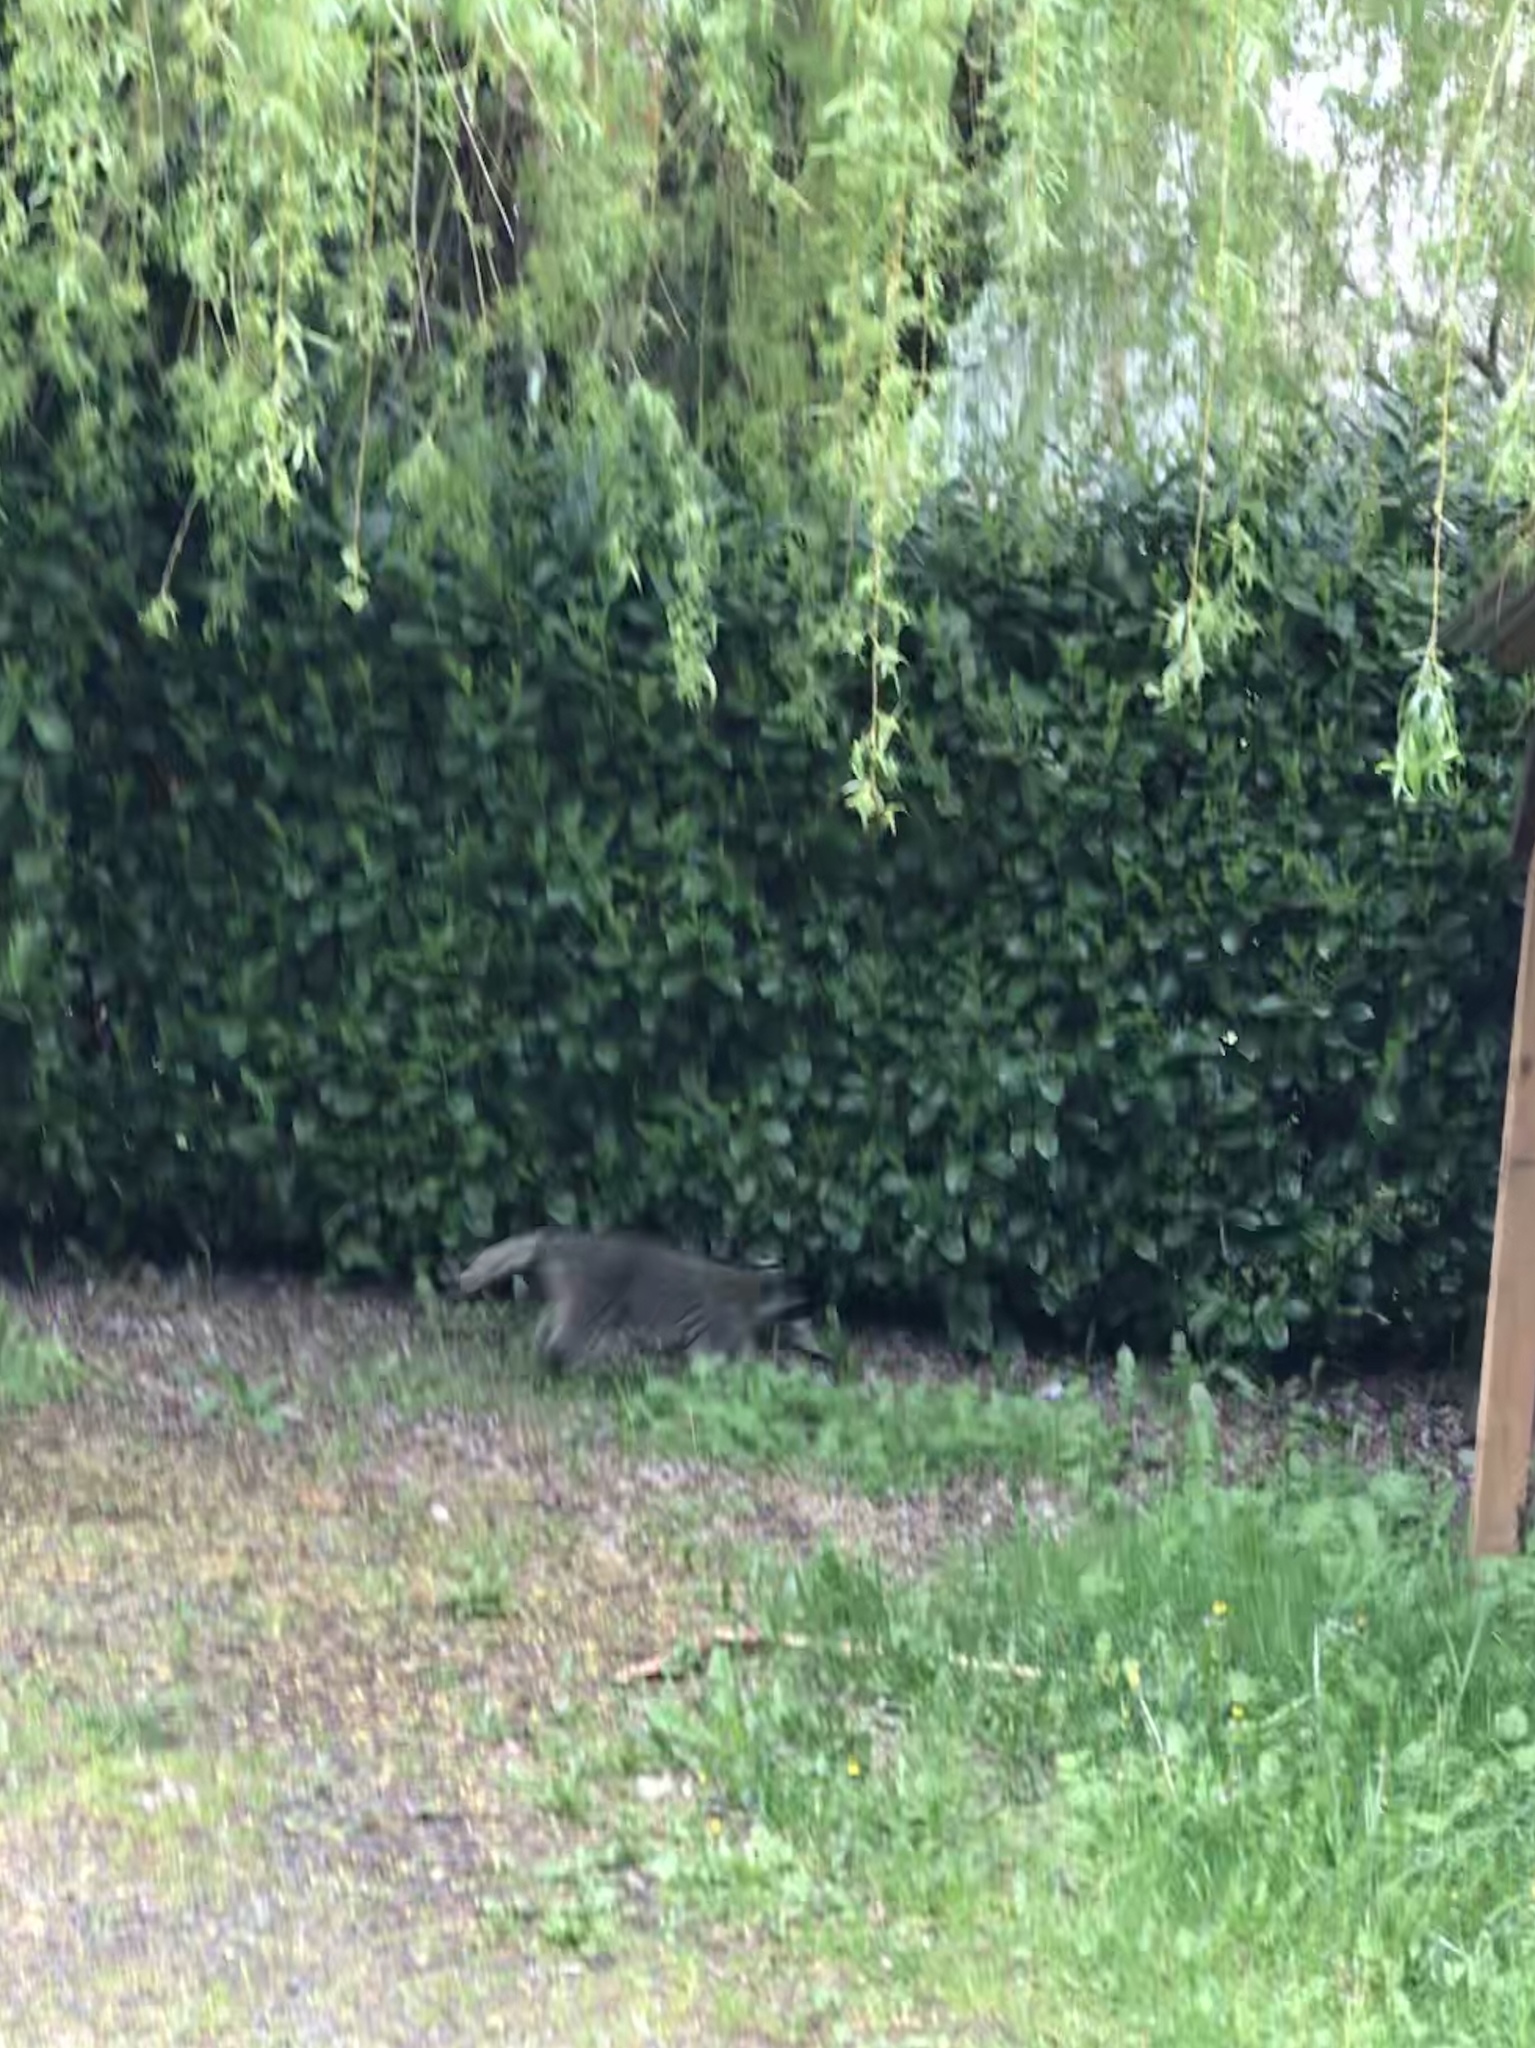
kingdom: Animalia
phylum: Chordata
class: Mammalia
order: Carnivora
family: Procyonidae
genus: Procyon
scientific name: Procyon lotor
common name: Raccoon
